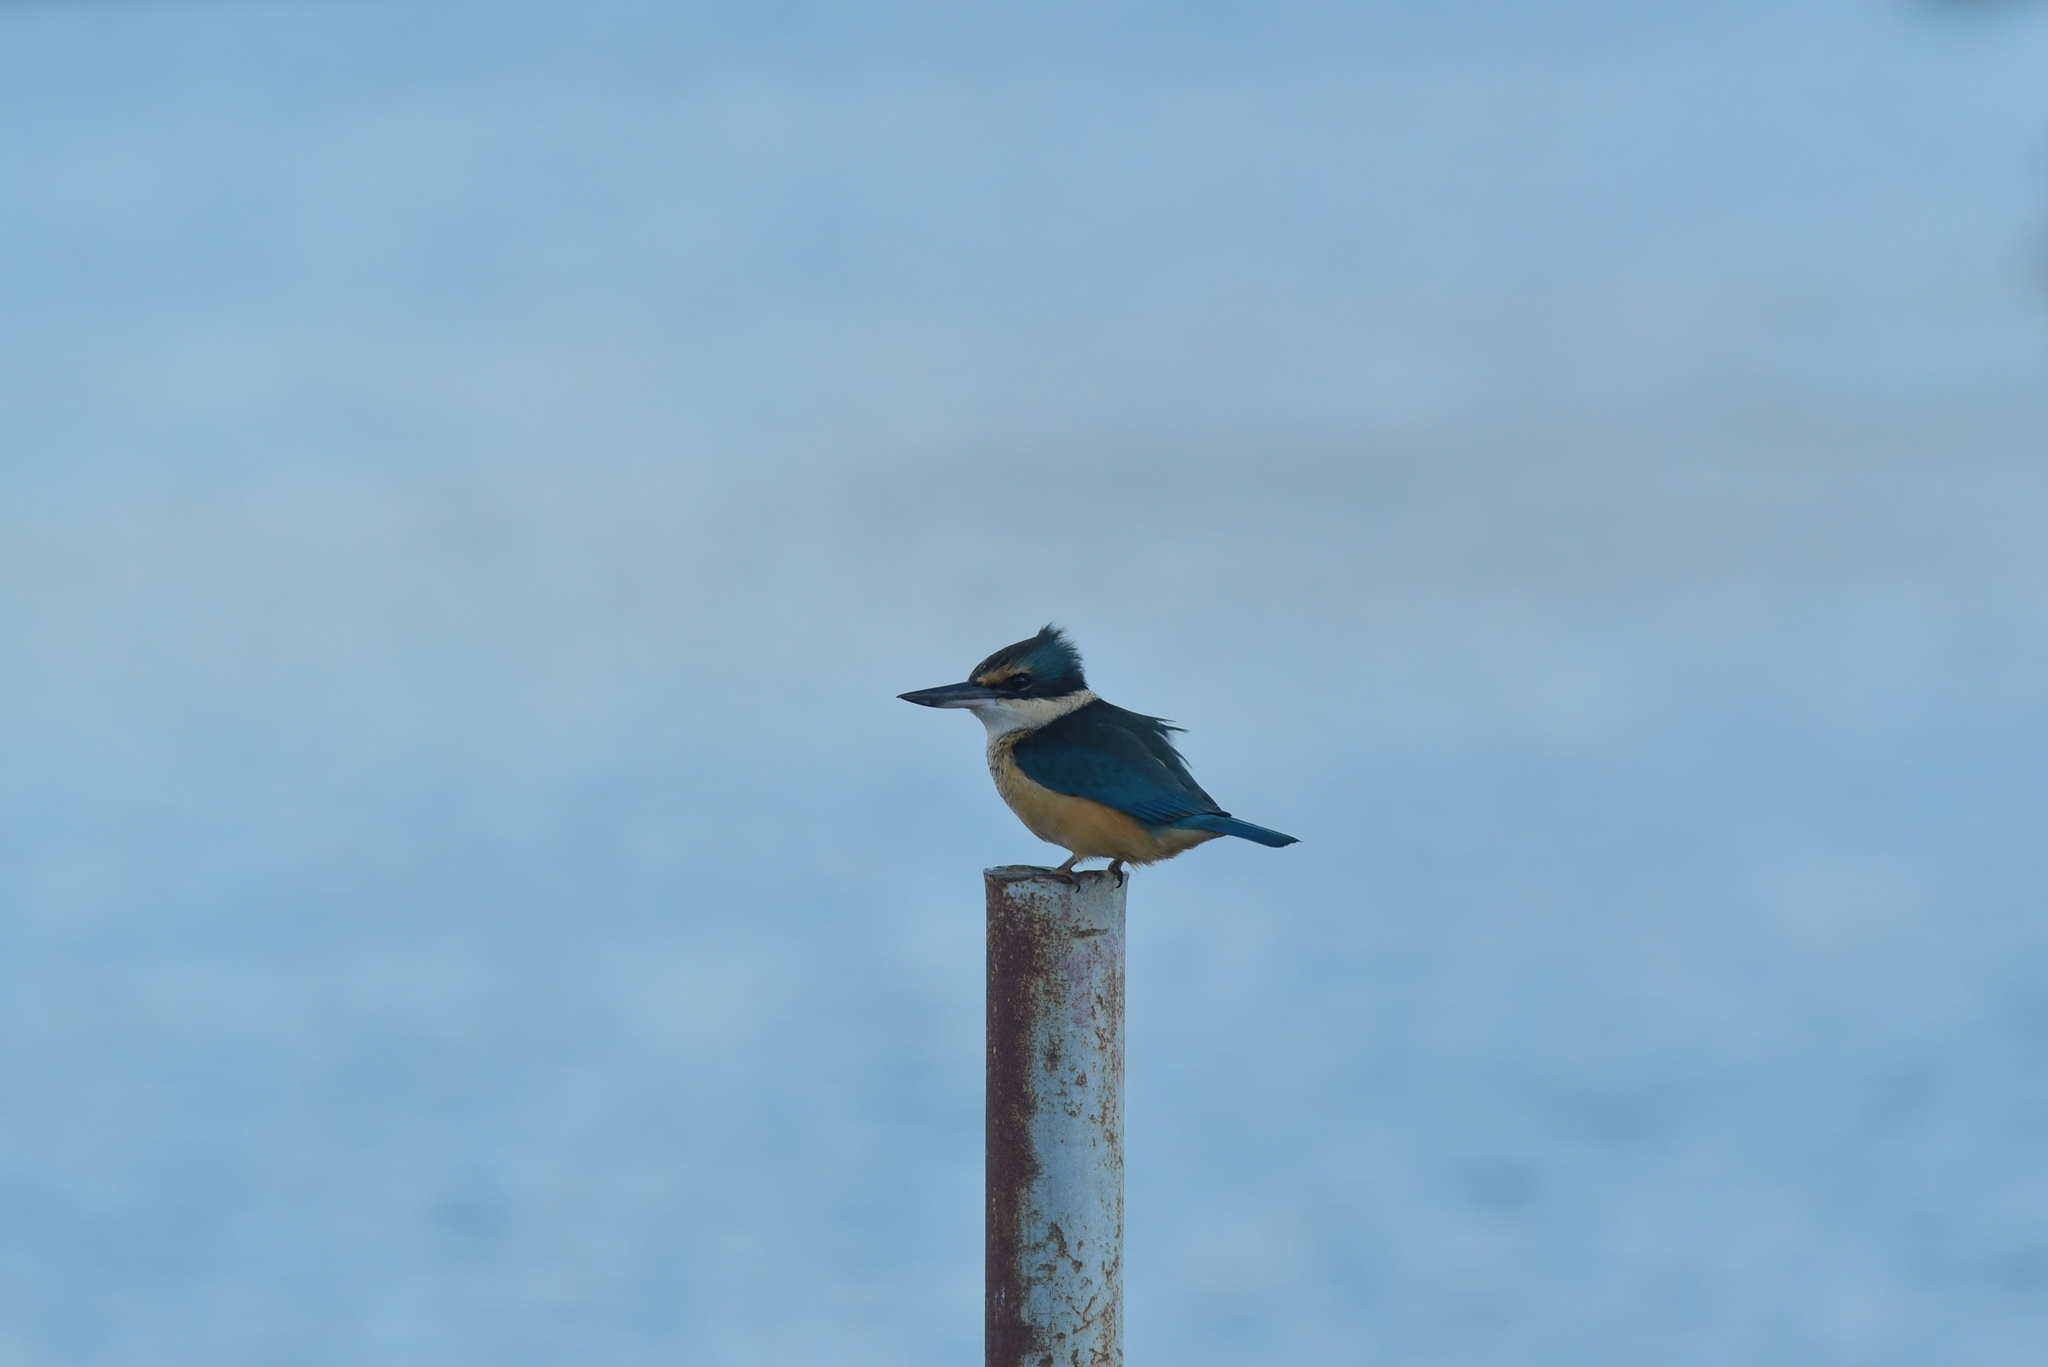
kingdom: Animalia
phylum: Chordata
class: Aves
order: Coraciiformes
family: Alcedinidae
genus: Todiramphus
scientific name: Todiramphus sanctus
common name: Sacred kingfisher
